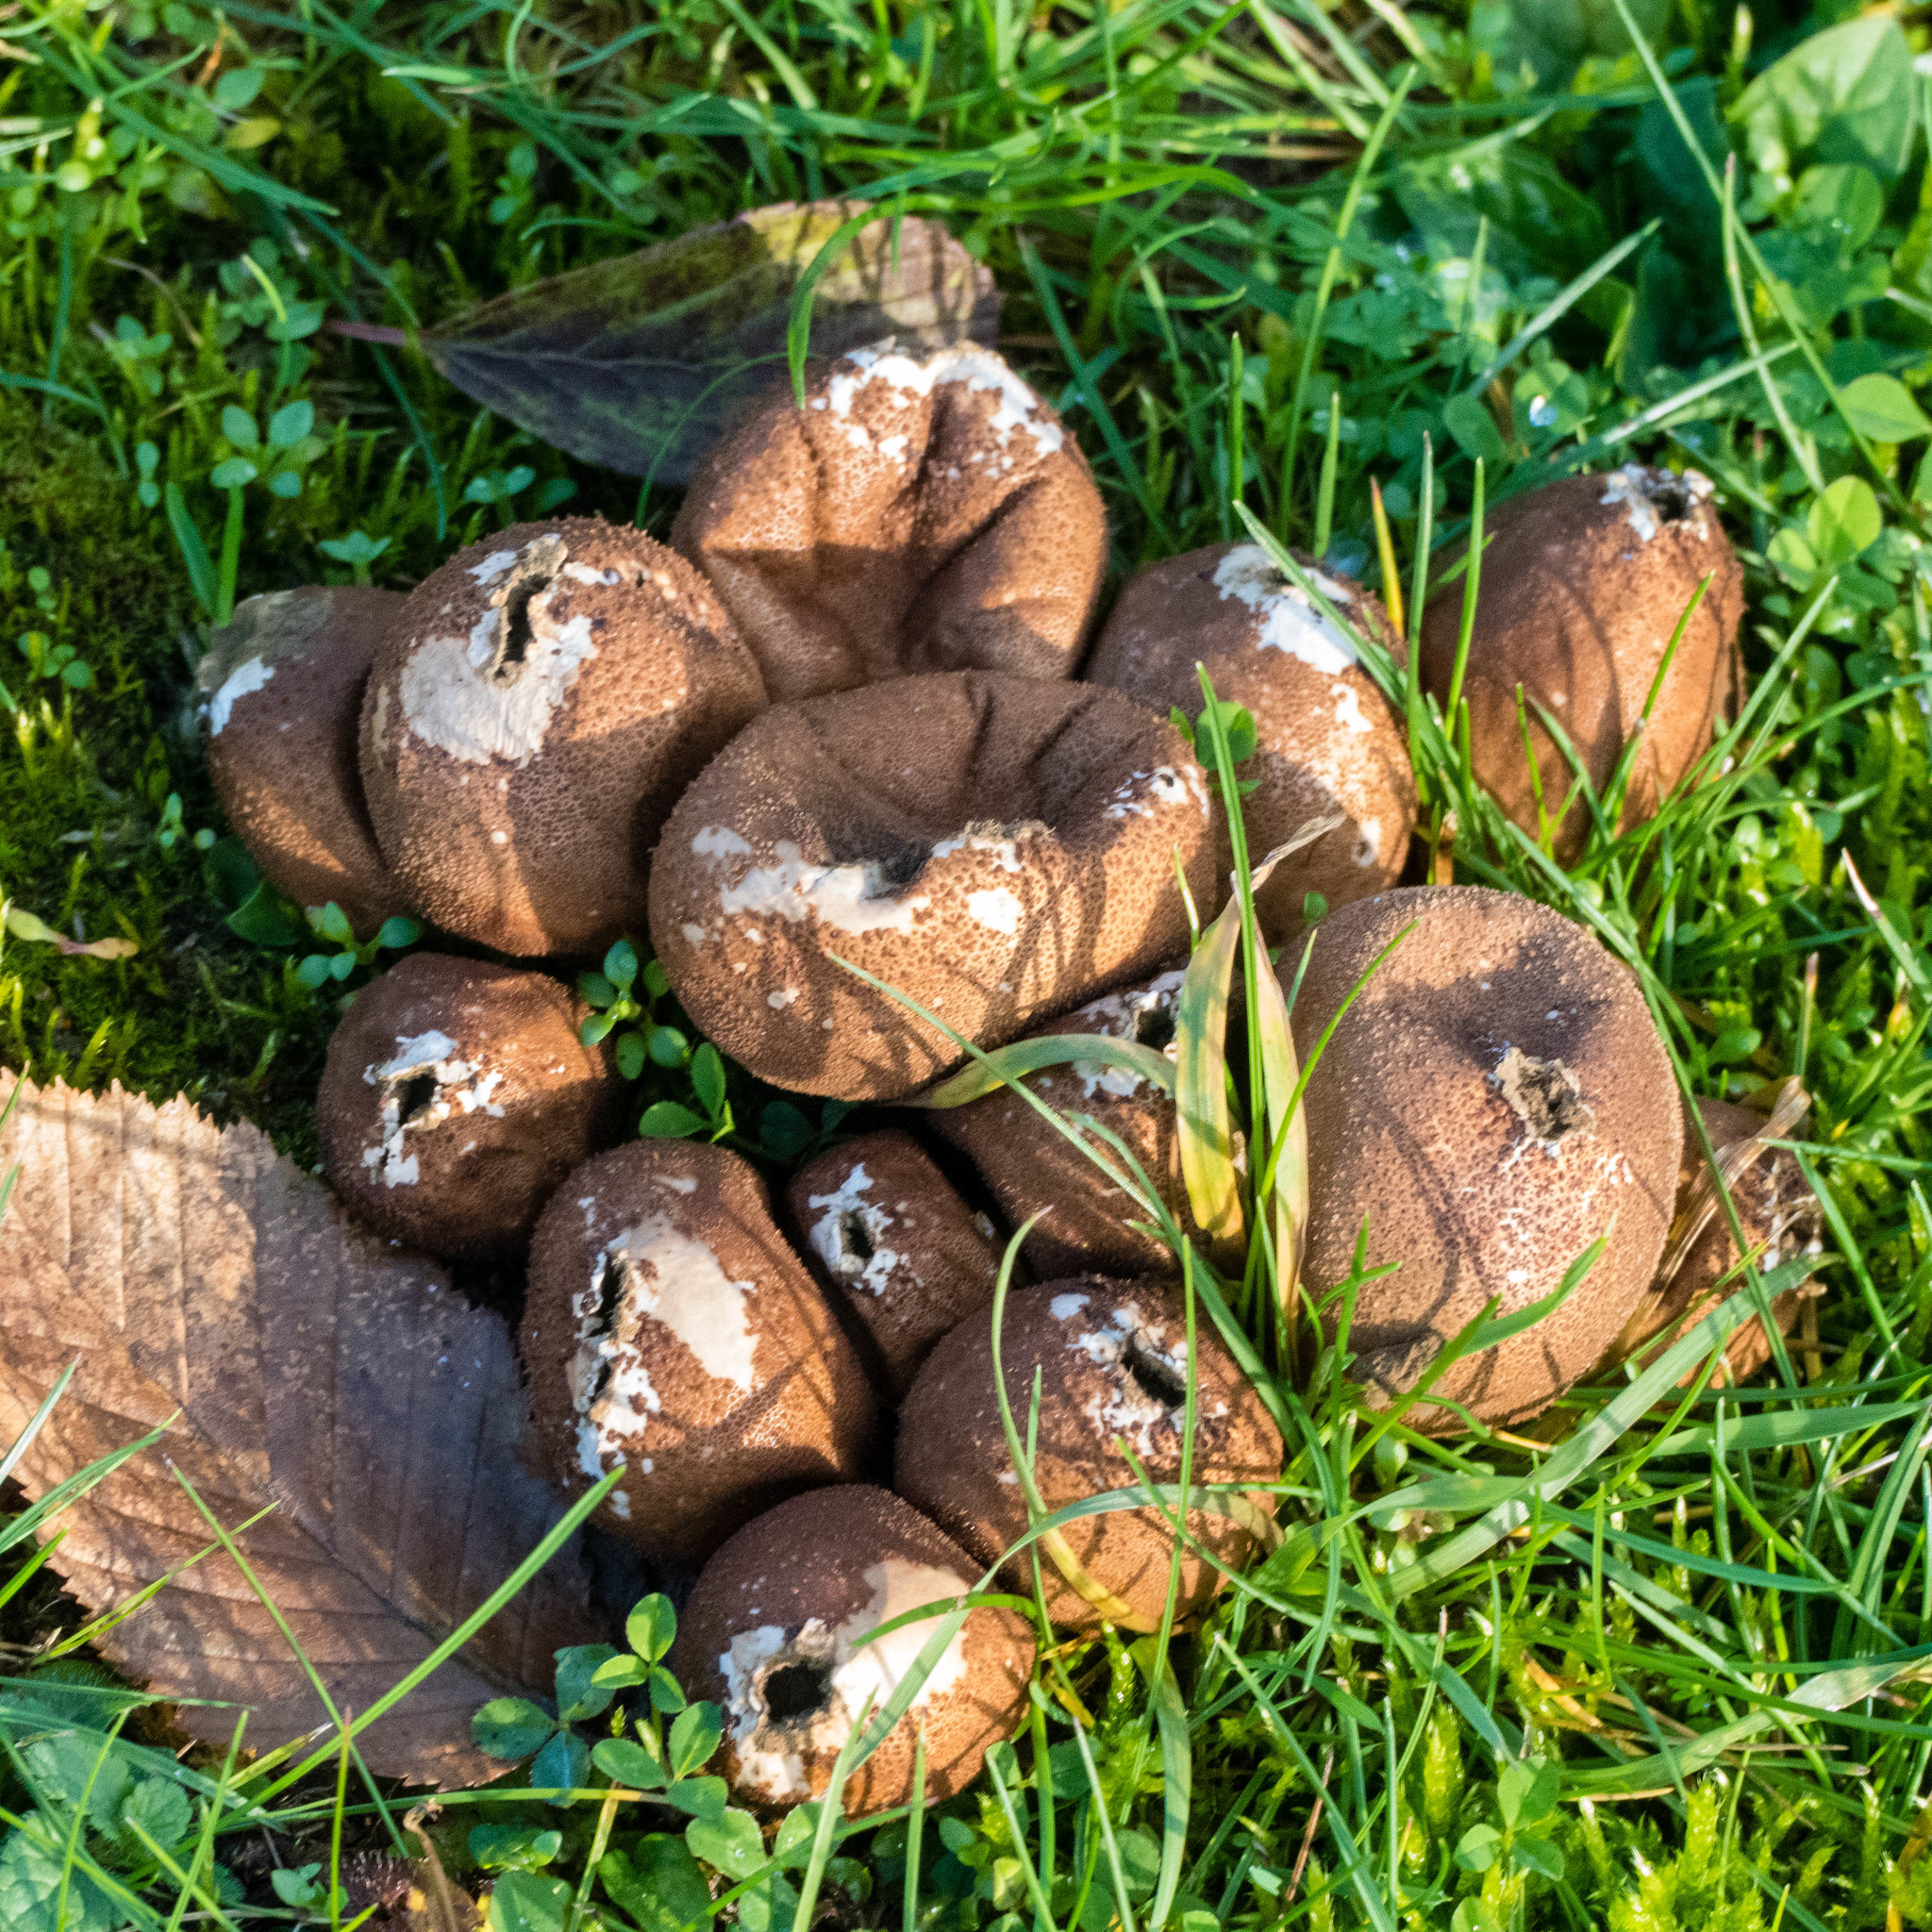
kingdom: Fungi
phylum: Basidiomycota
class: Agaricomycetes
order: Agaricales
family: Lycoperdaceae
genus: Apioperdon
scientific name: Apioperdon pyriforme
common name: Pear-shaped puffball
